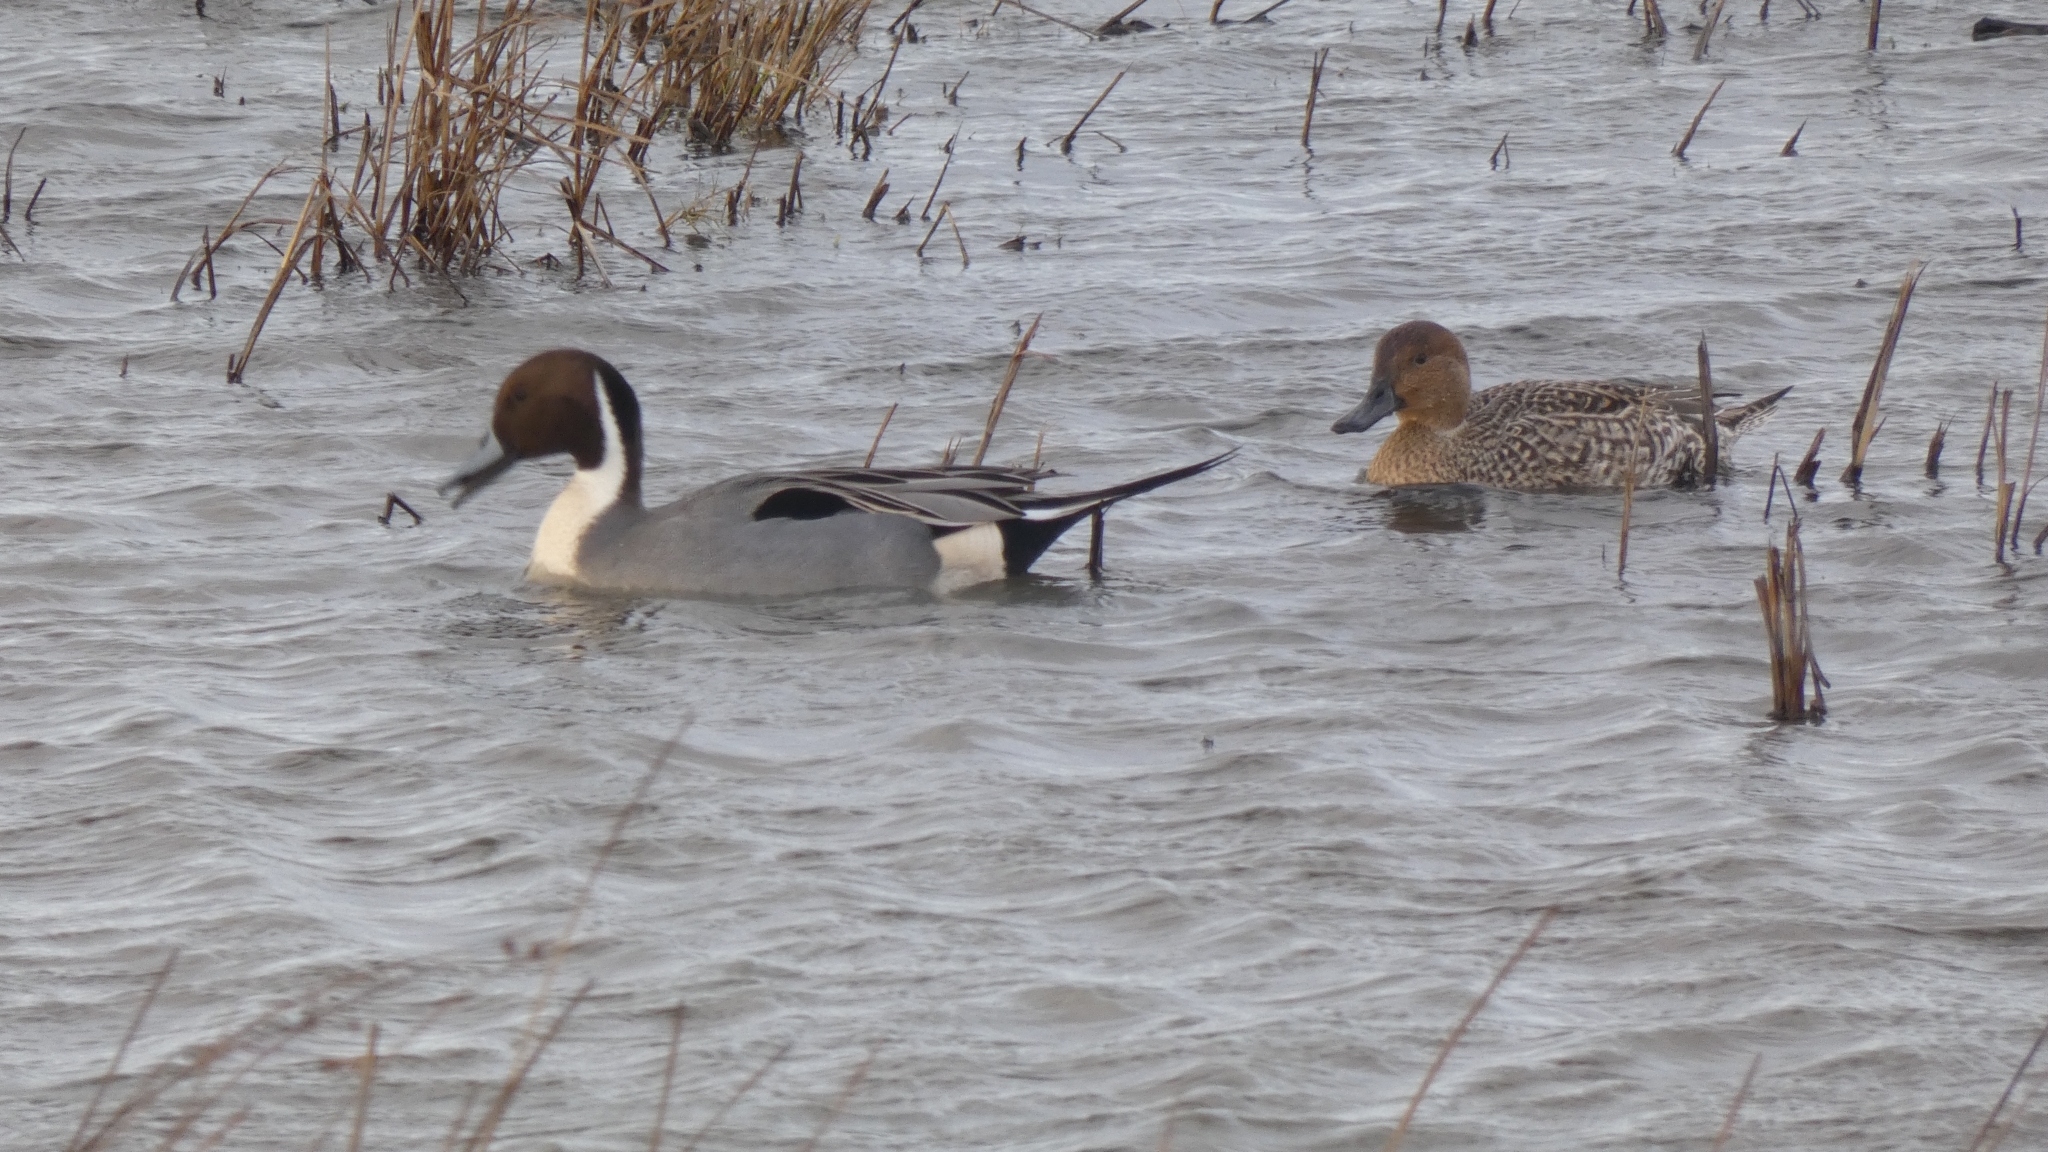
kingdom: Animalia
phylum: Chordata
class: Aves
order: Anseriformes
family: Anatidae
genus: Anas
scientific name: Anas acuta
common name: Northern pintail
